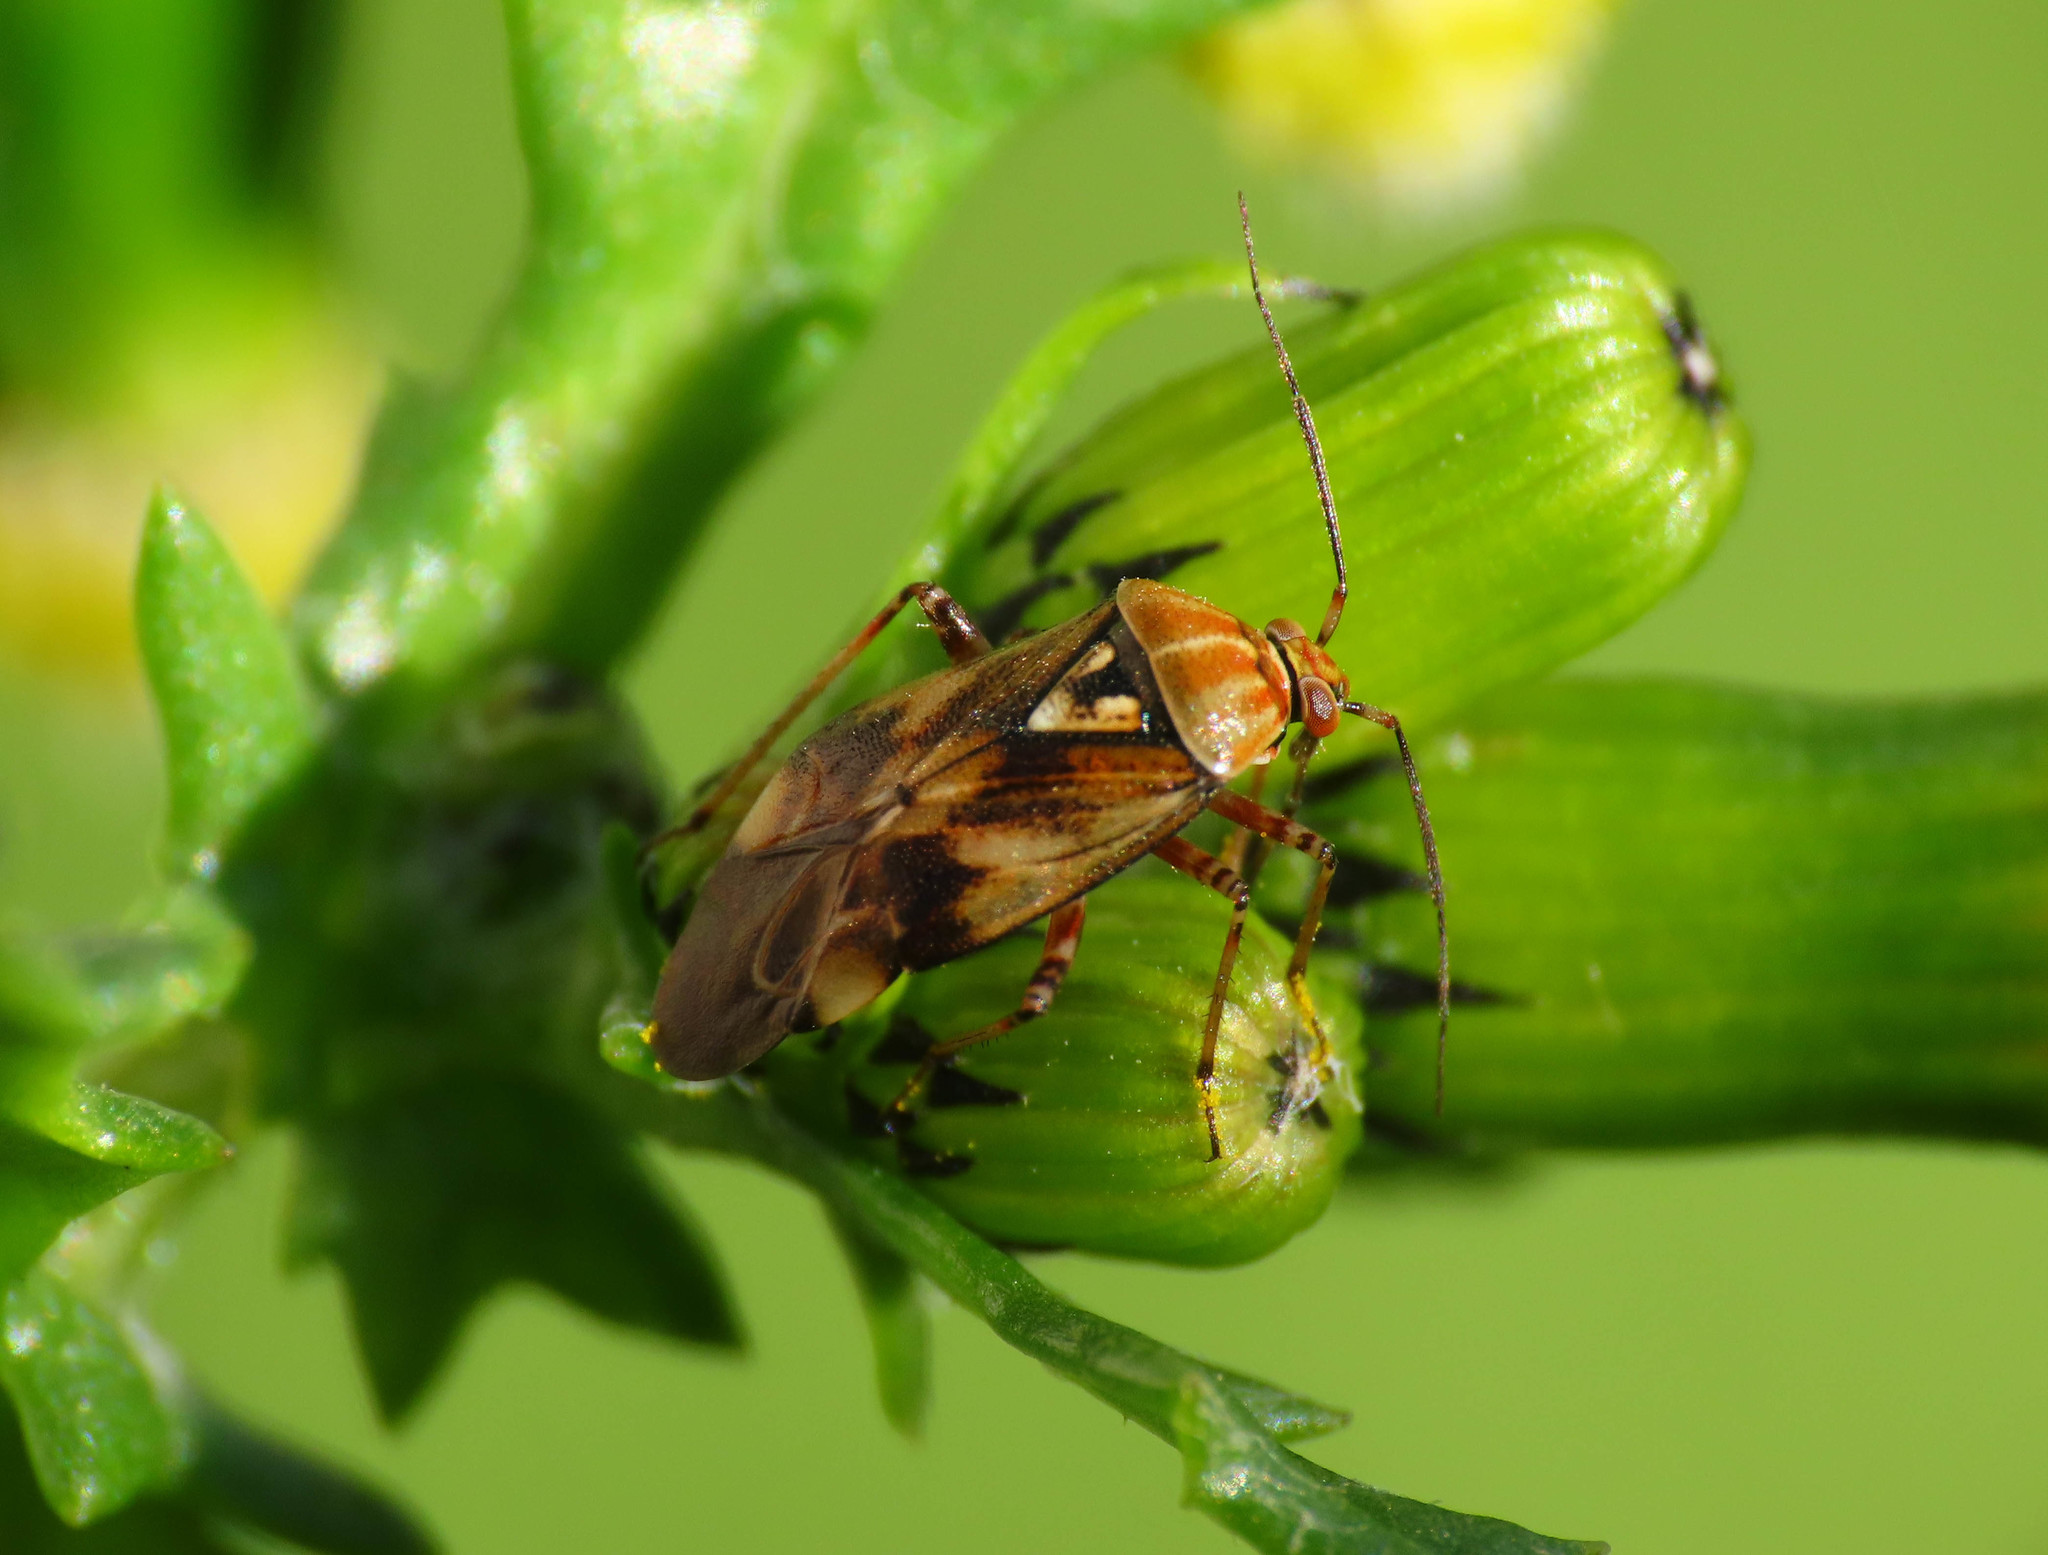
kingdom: Animalia
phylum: Arthropoda
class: Insecta
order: Hemiptera
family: Miridae
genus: Lygus
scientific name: Lygus punctatus
